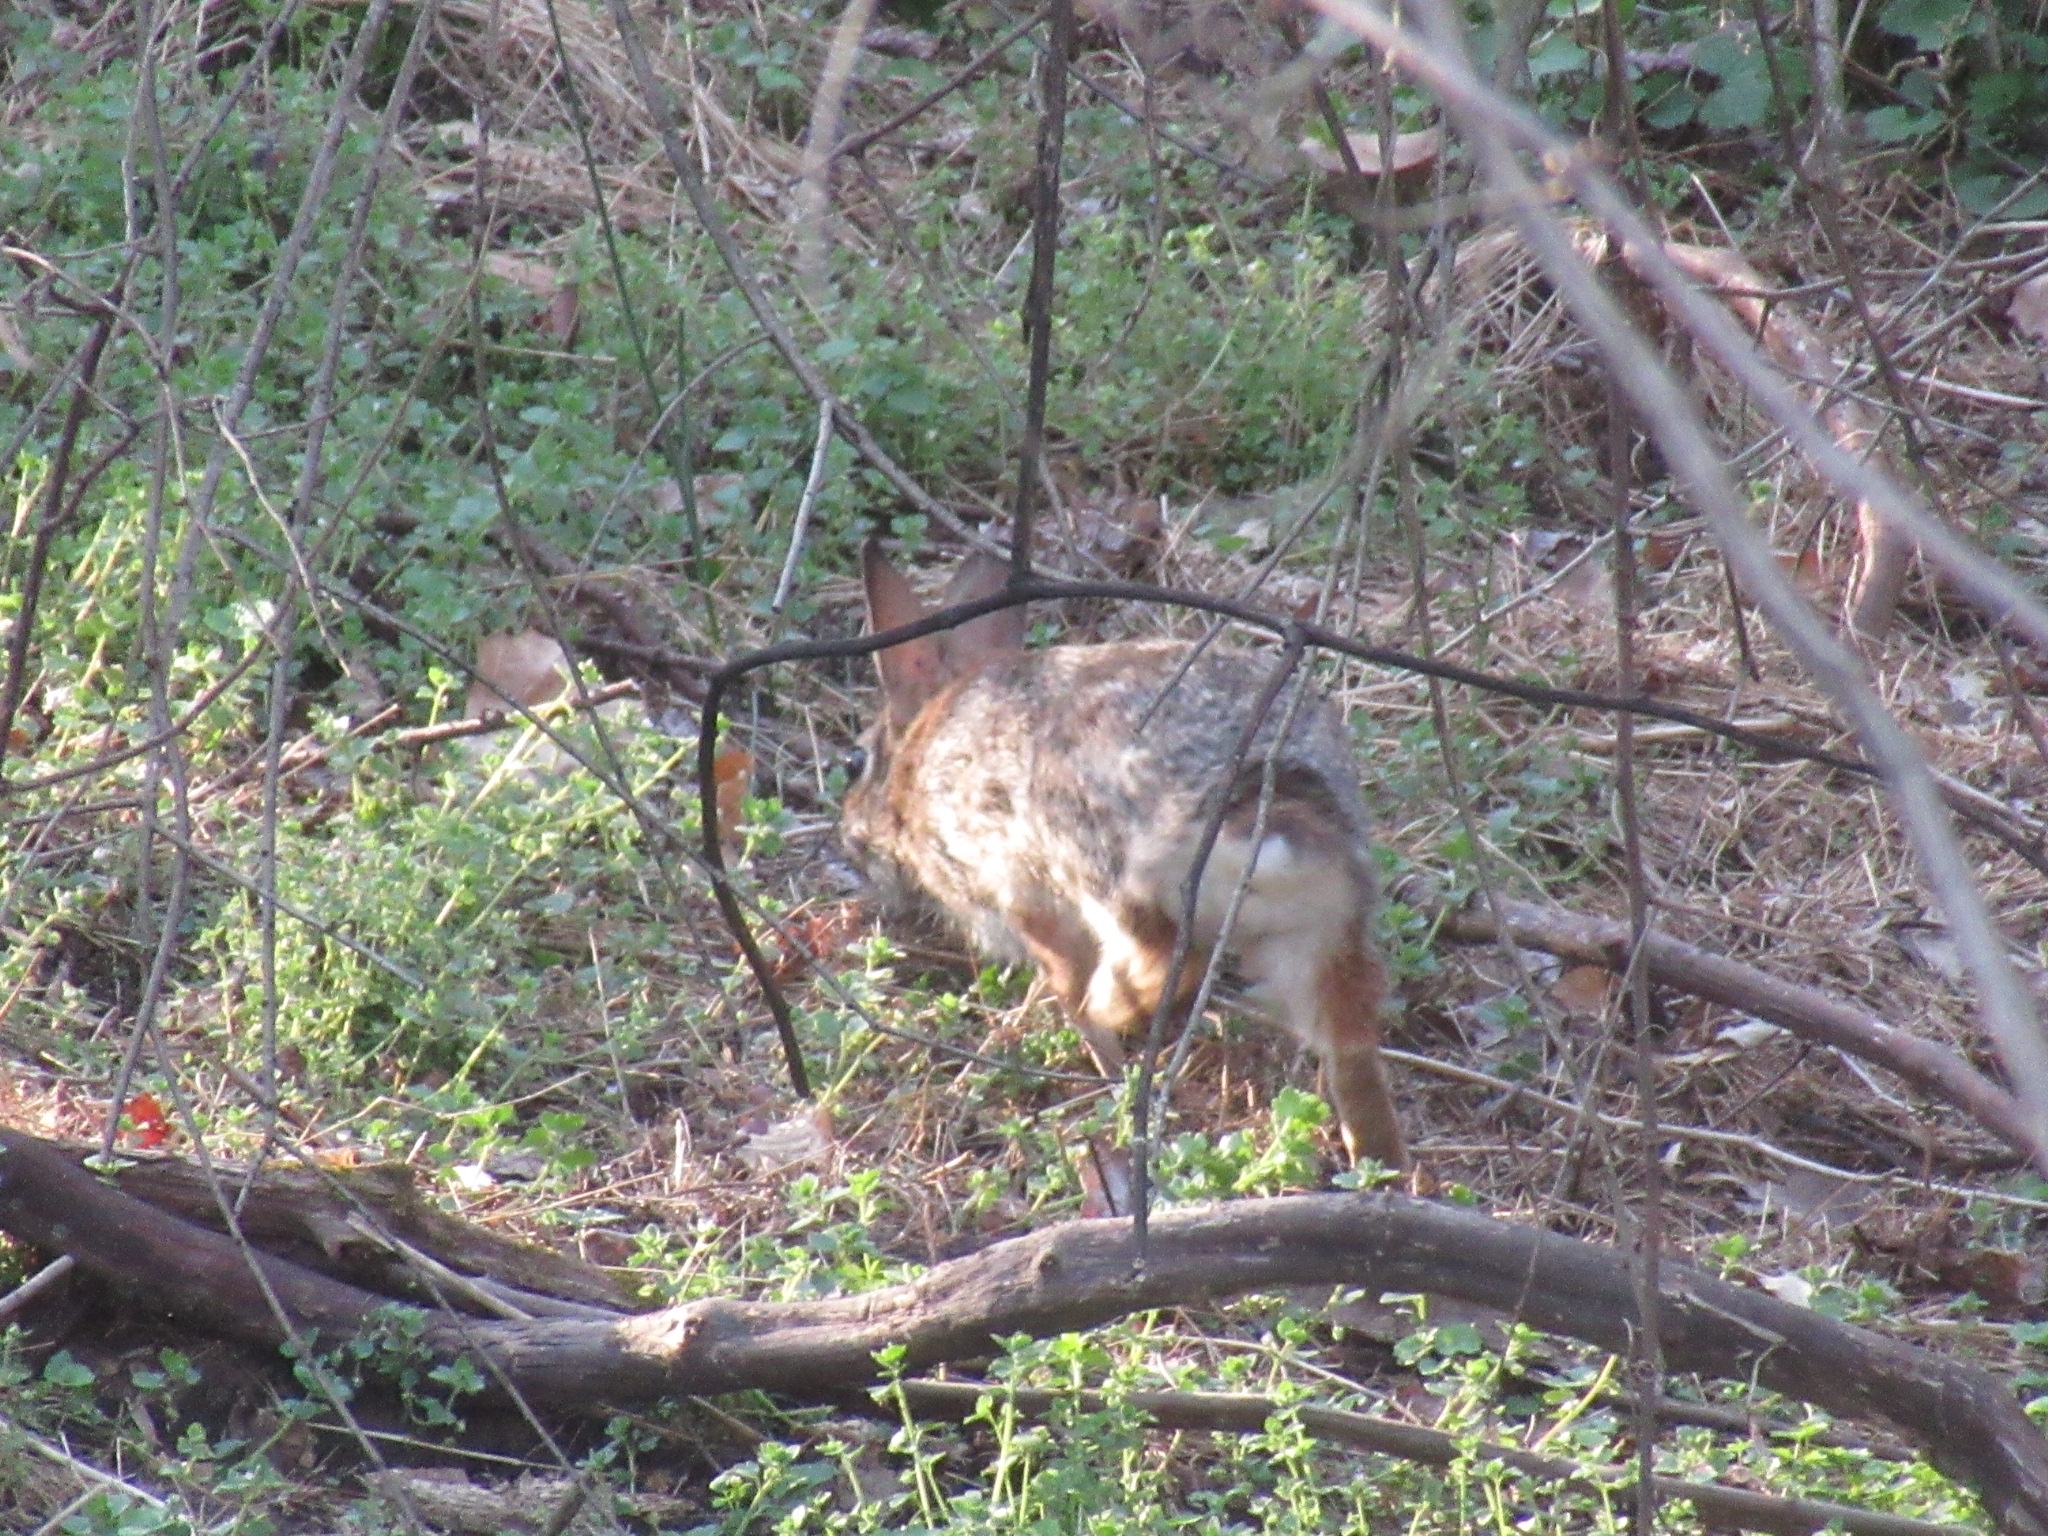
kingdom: Animalia
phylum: Chordata
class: Mammalia
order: Lagomorpha
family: Leporidae
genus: Sylvilagus
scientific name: Sylvilagus floridanus
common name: Eastern cottontail
